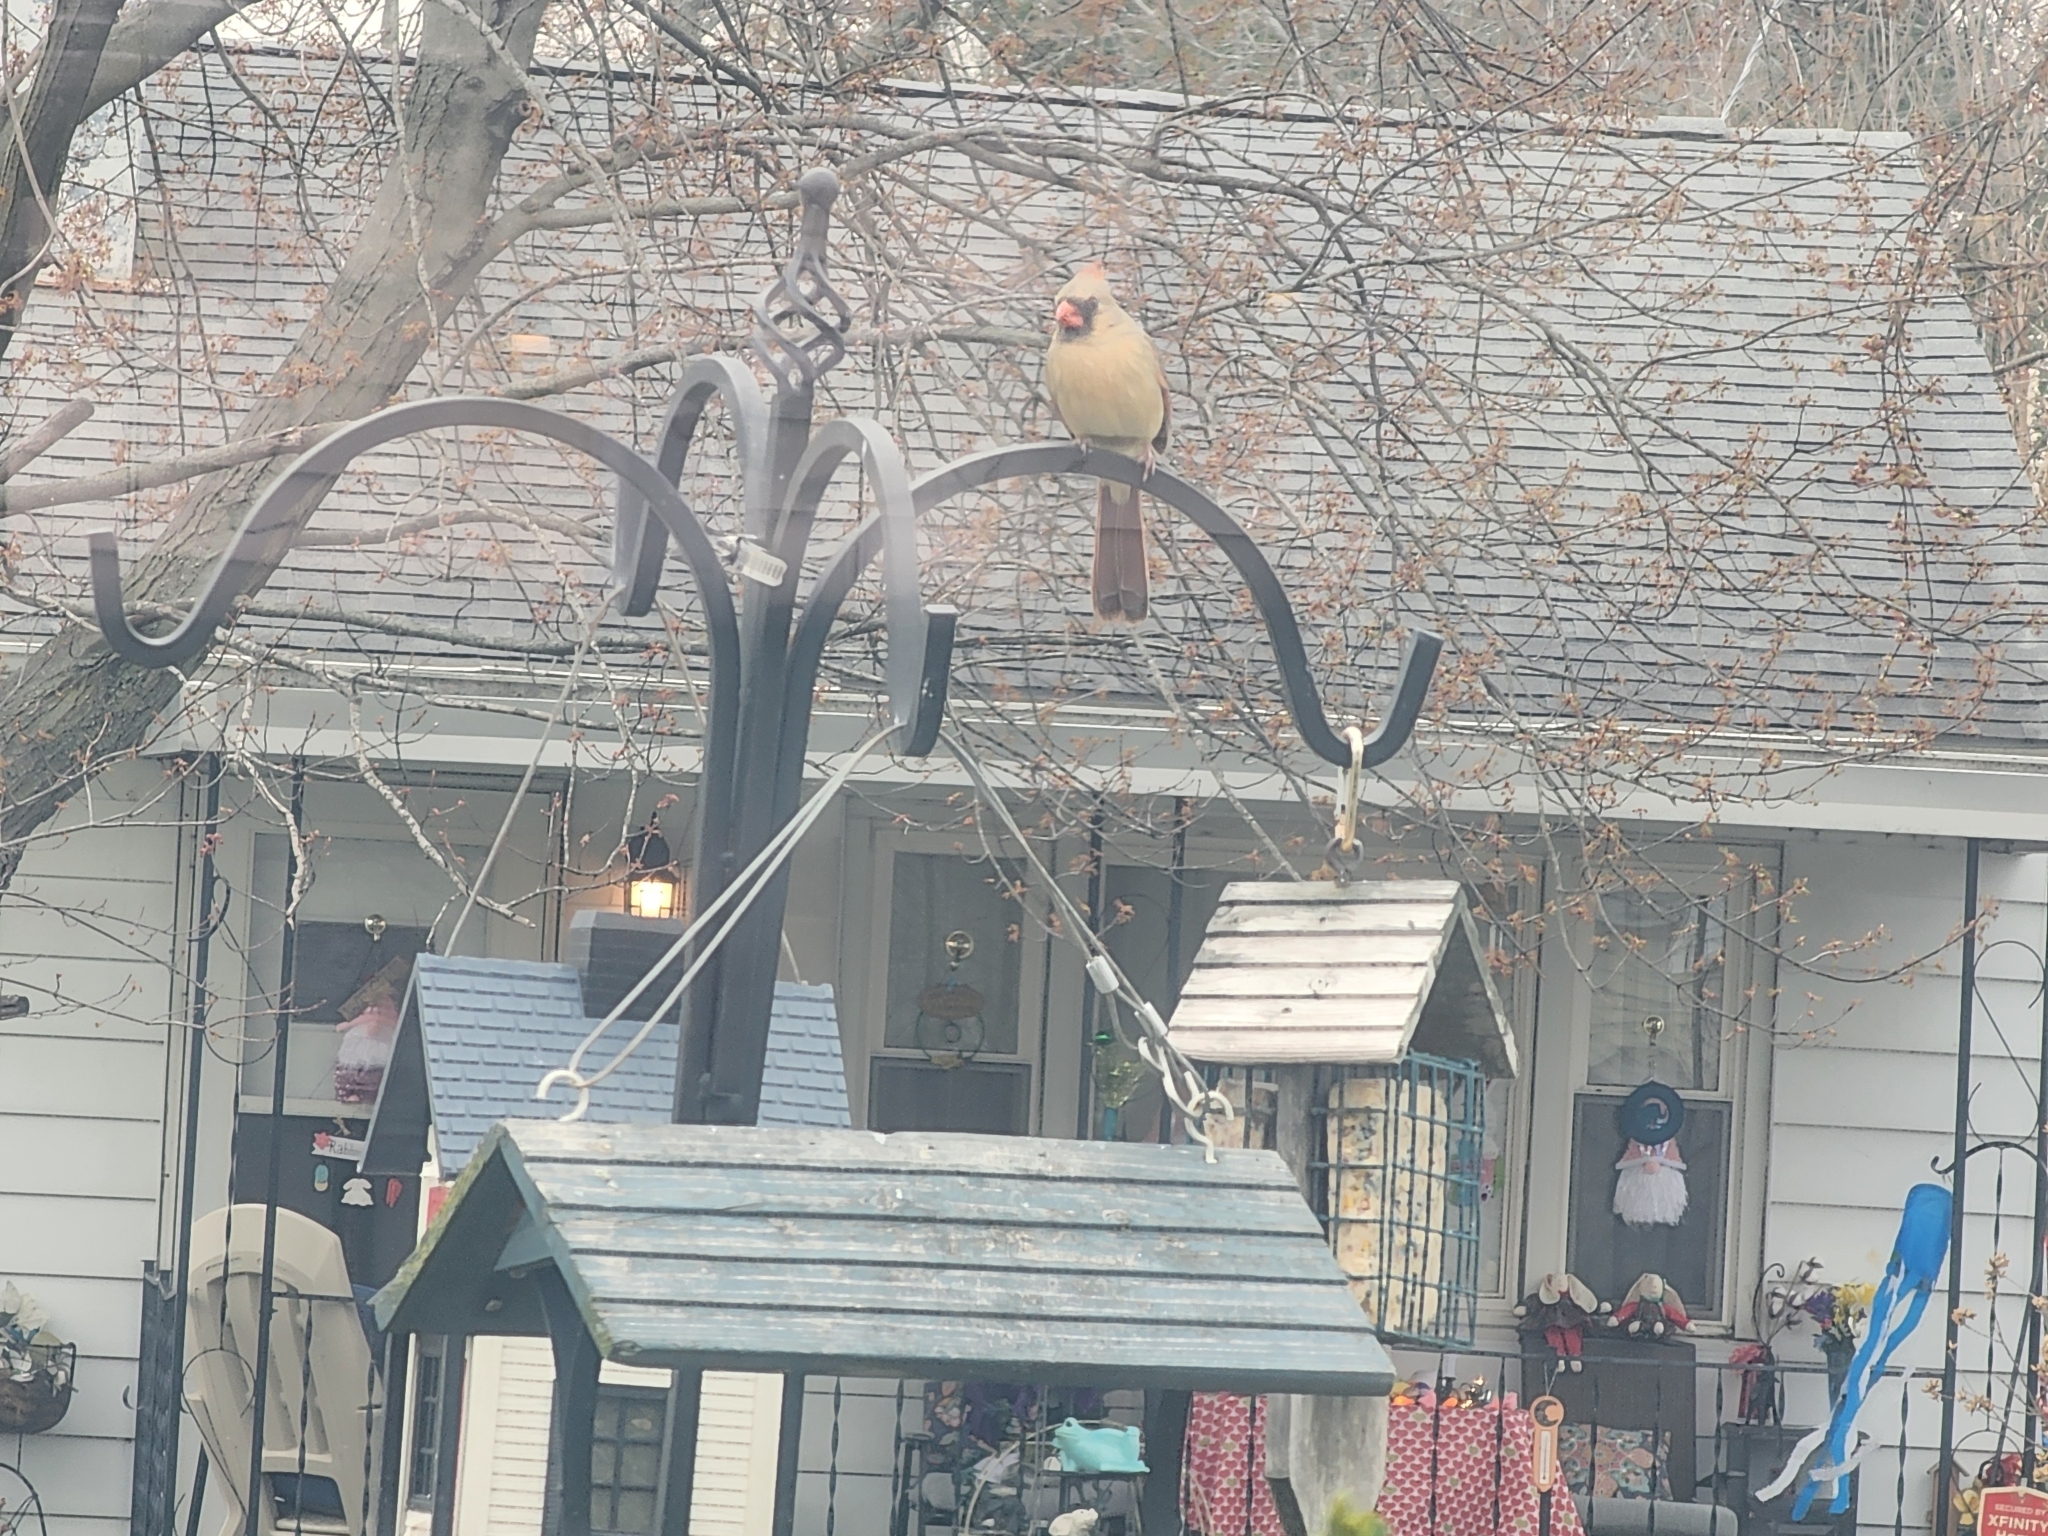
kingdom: Animalia
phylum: Chordata
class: Aves
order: Passeriformes
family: Cardinalidae
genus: Cardinalis
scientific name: Cardinalis cardinalis
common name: Northern cardinal
